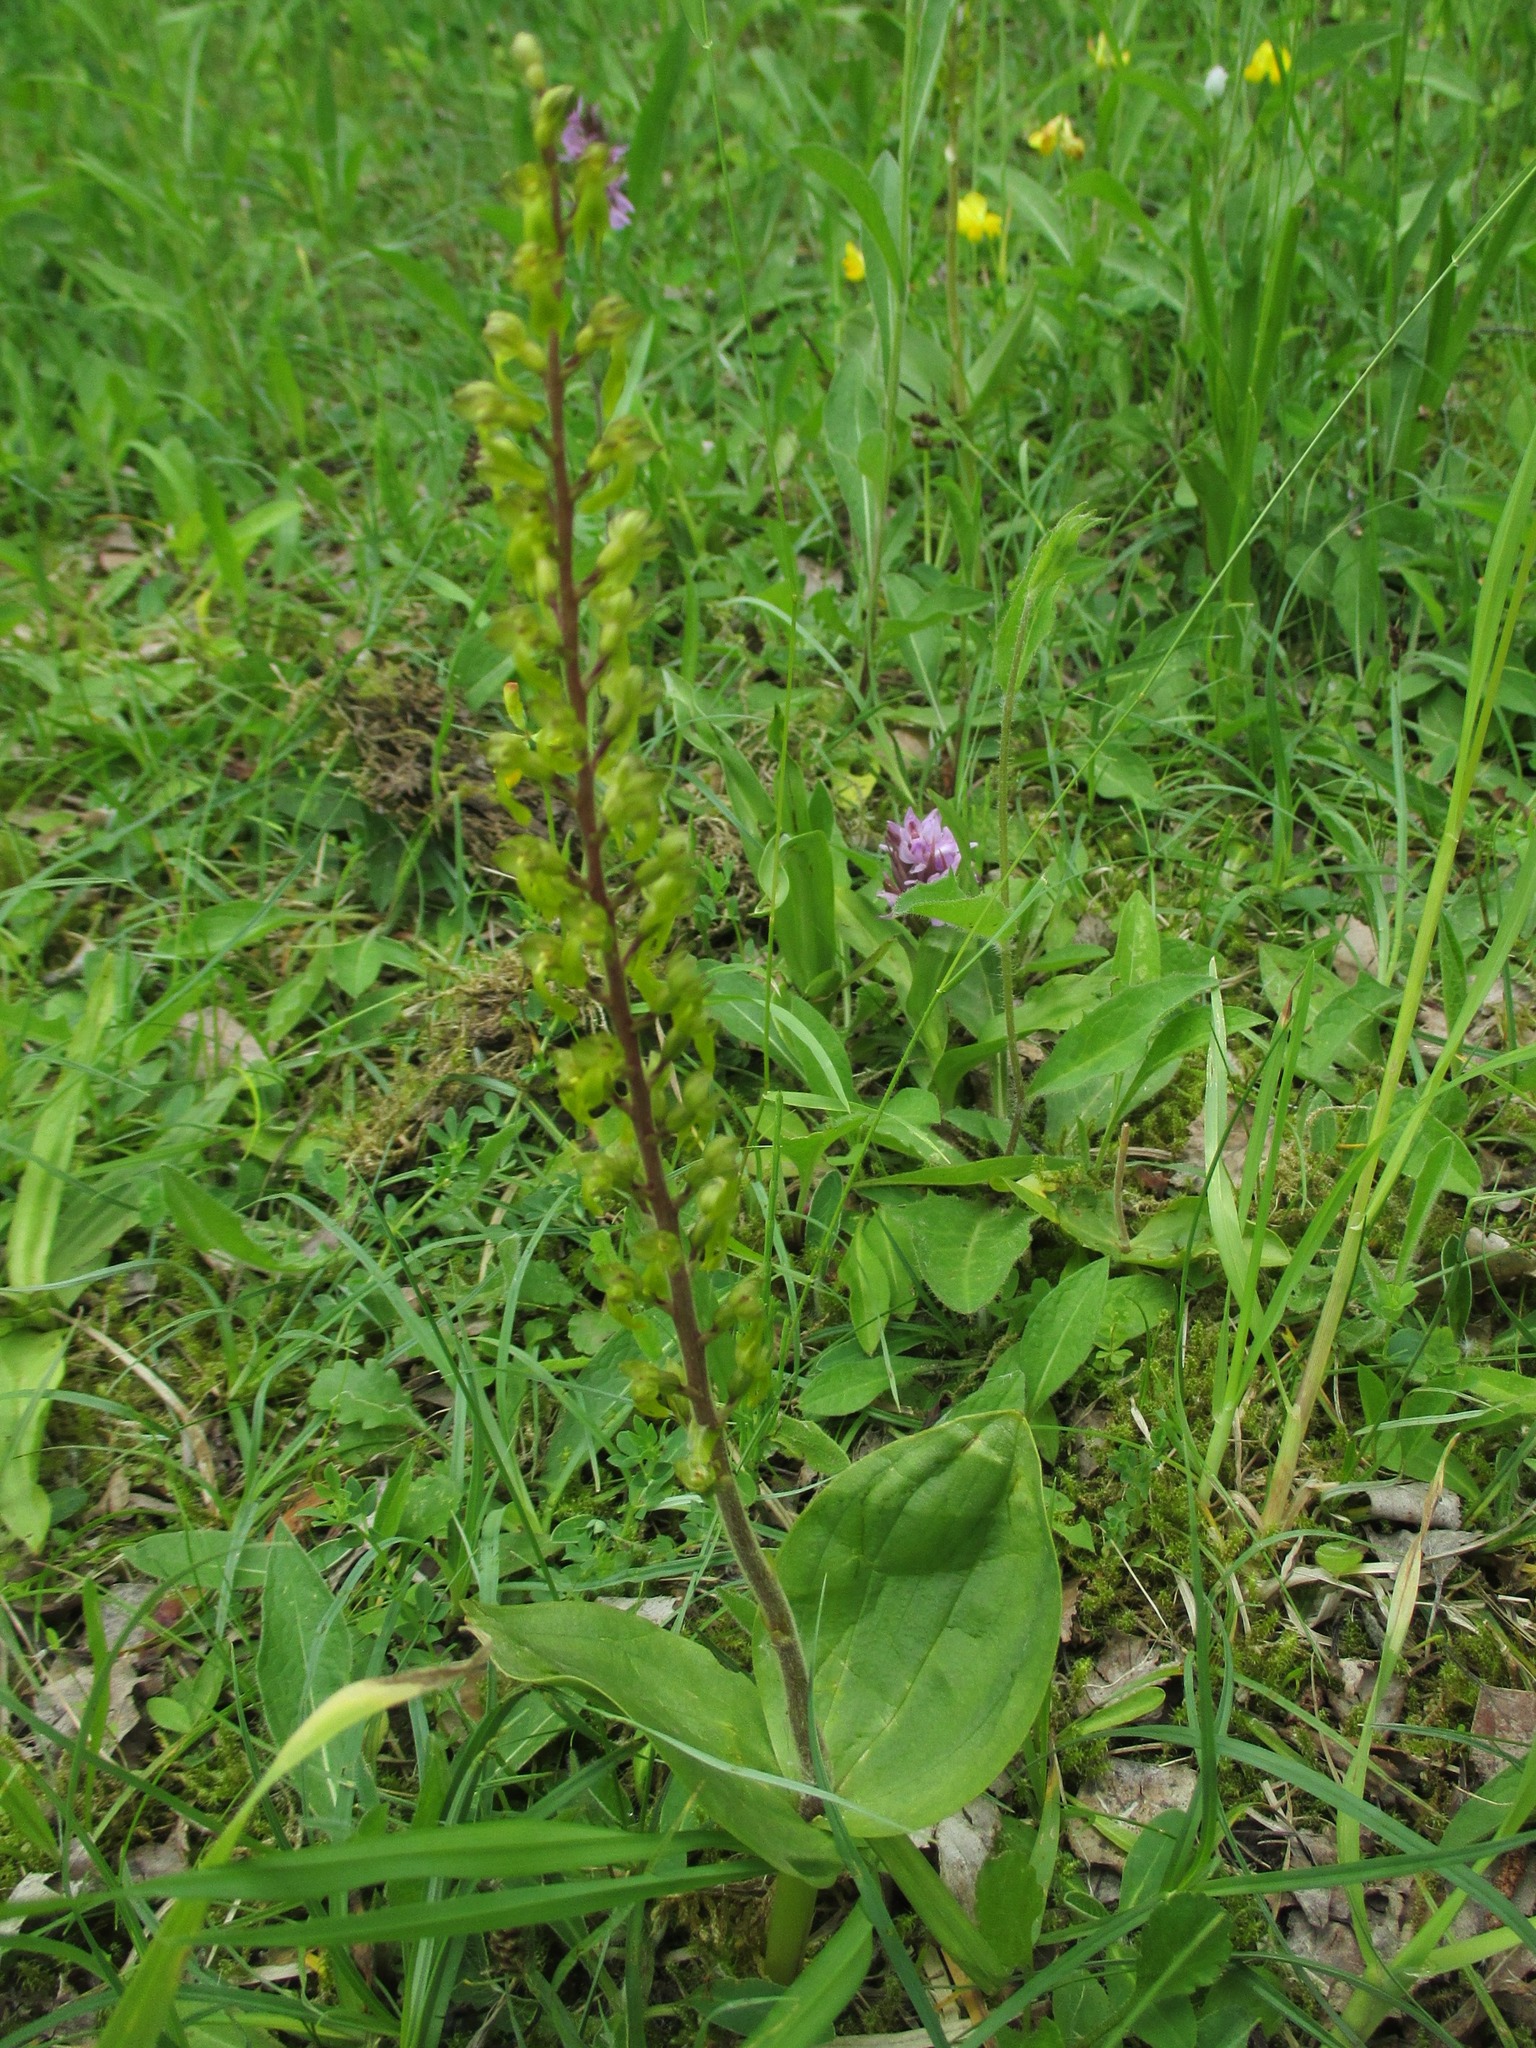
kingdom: Plantae
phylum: Tracheophyta
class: Liliopsida
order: Asparagales
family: Orchidaceae
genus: Neottia
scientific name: Neottia ovata
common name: Common twayblade
